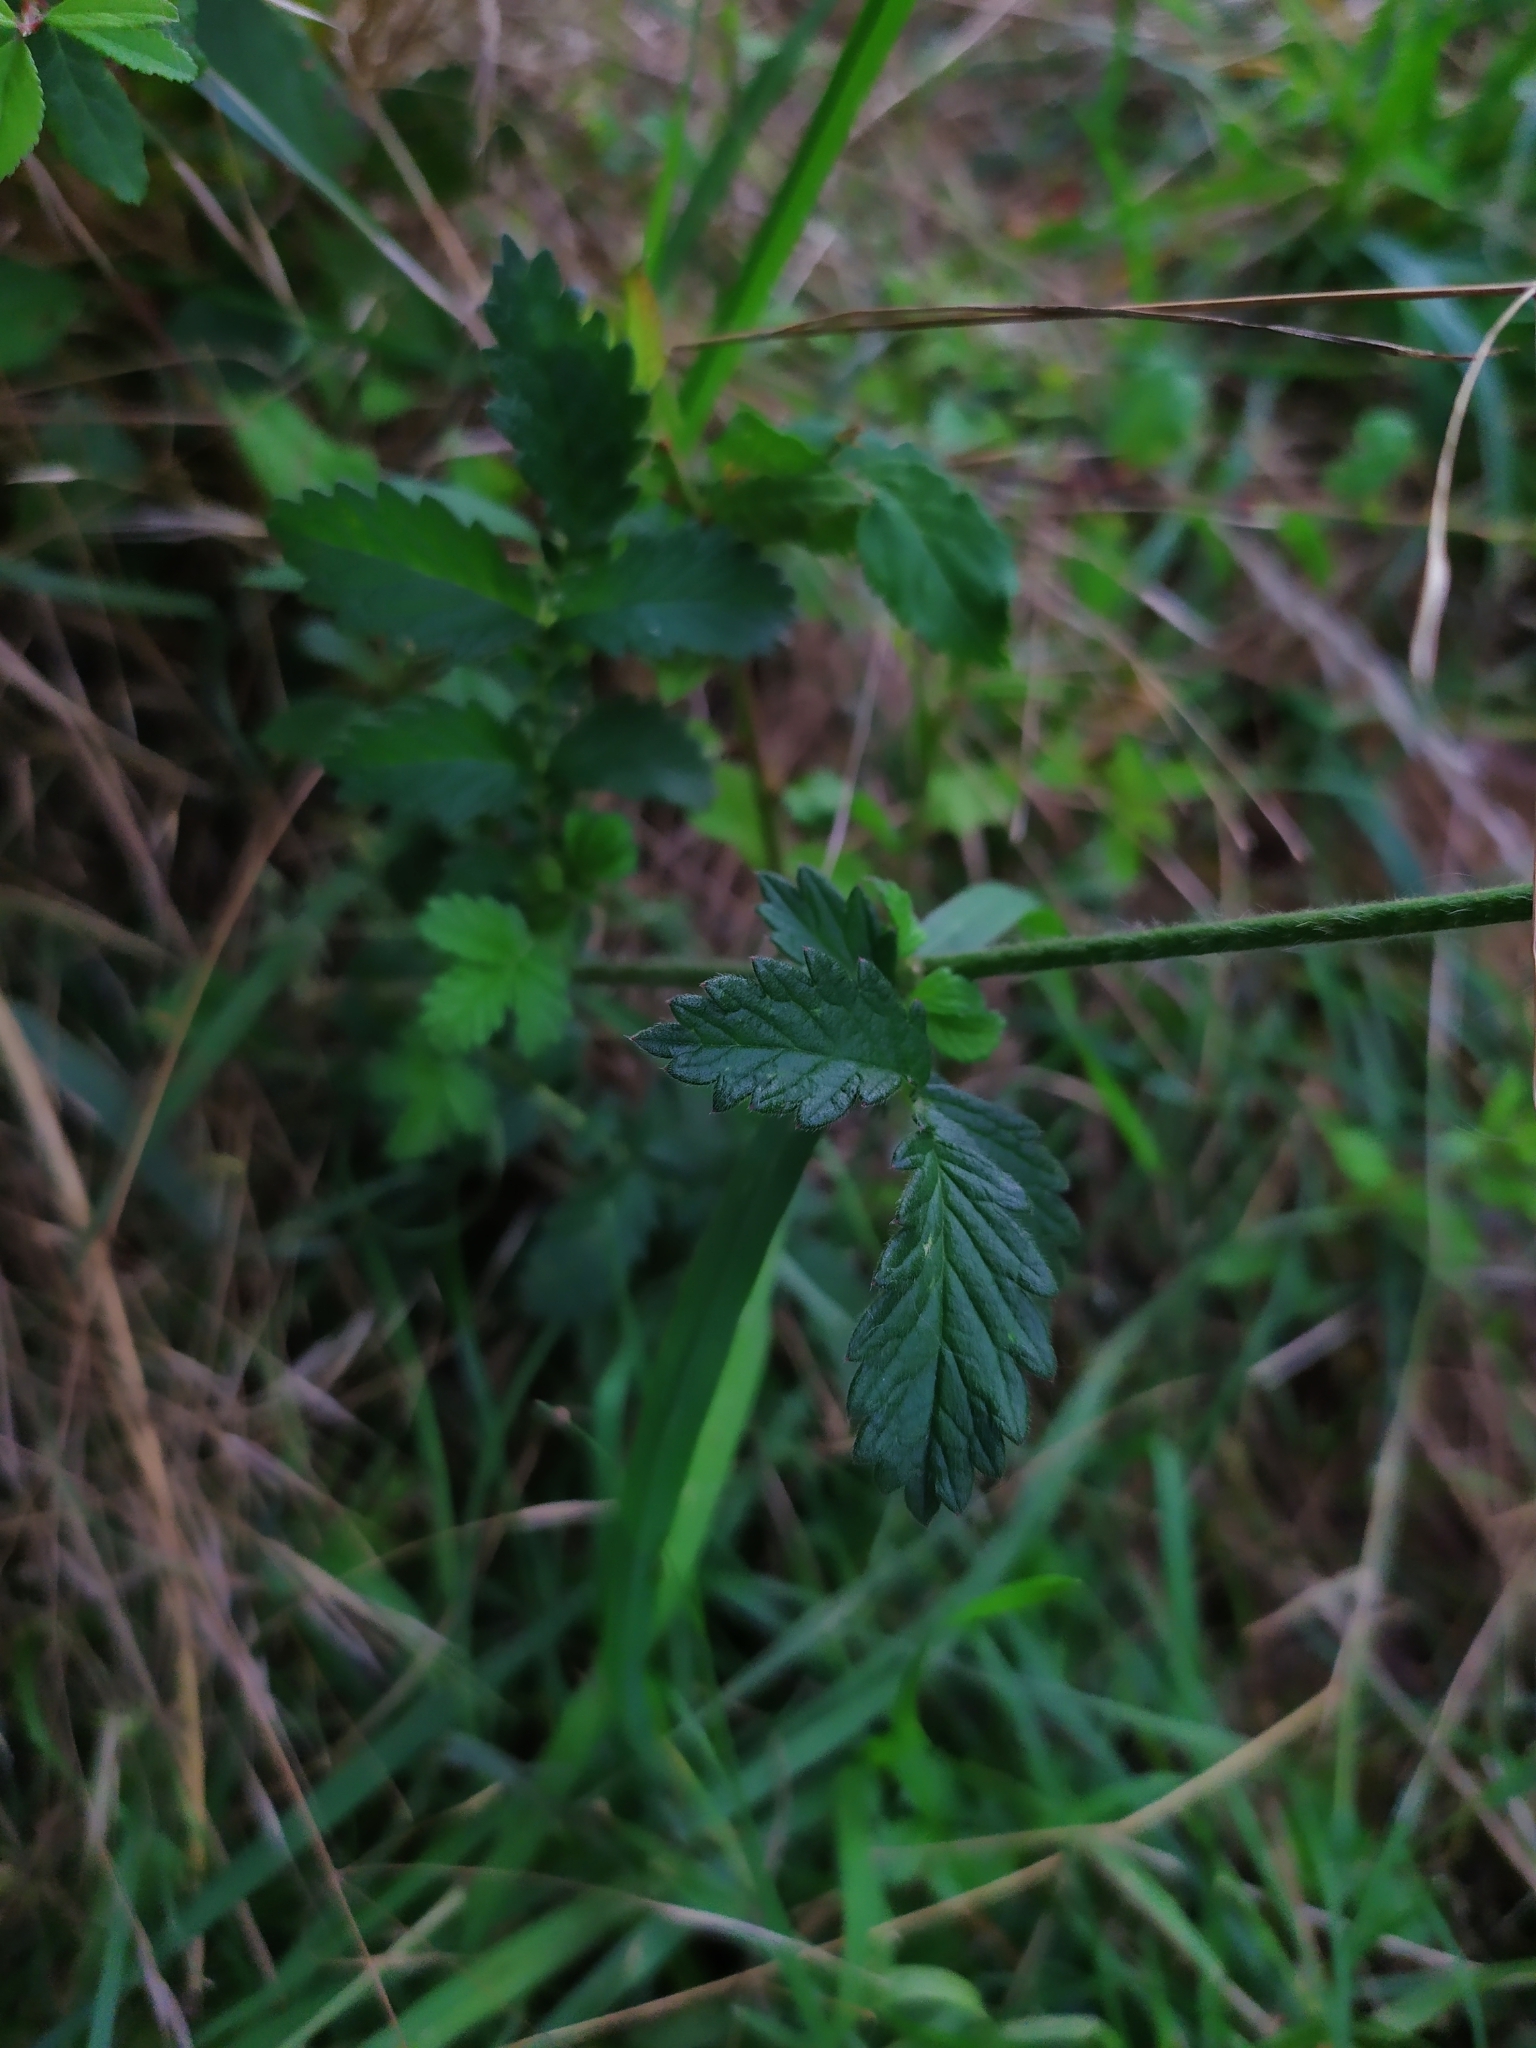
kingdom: Plantae
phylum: Tracheophyta
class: Magnoliopsida
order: Rosales
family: Rosaceae
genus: Agrimonia
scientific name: Agrimonia eupatoria
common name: Agrimony
